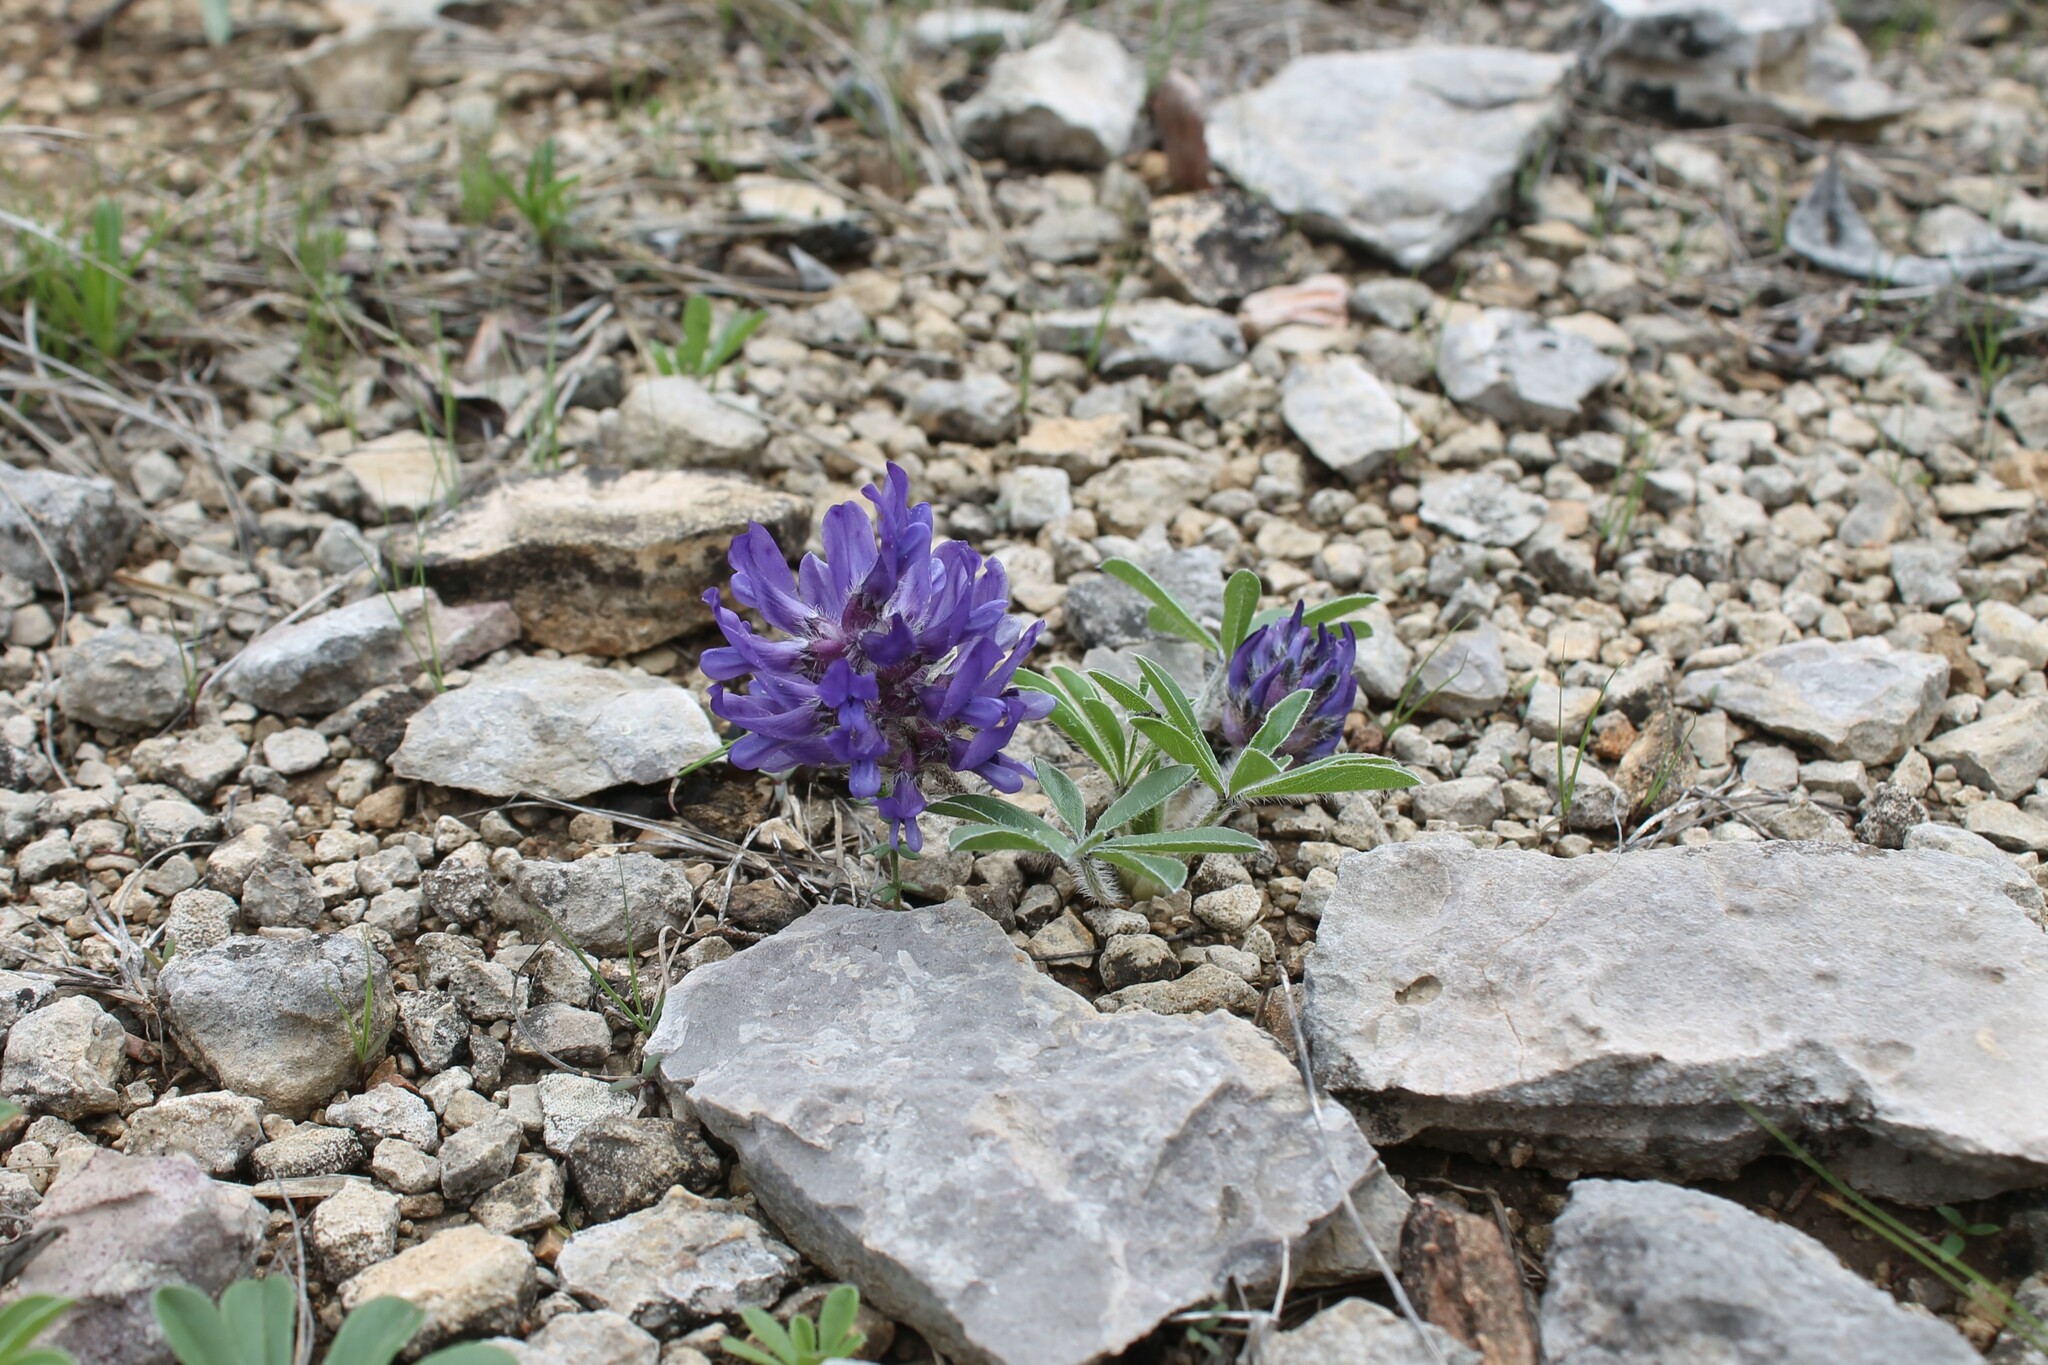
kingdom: Plantae
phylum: Tracheophyta
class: Magnoliopsida
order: Fabales
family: Fabaceae
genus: Pediomelum
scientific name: Pediomelum subacaule
